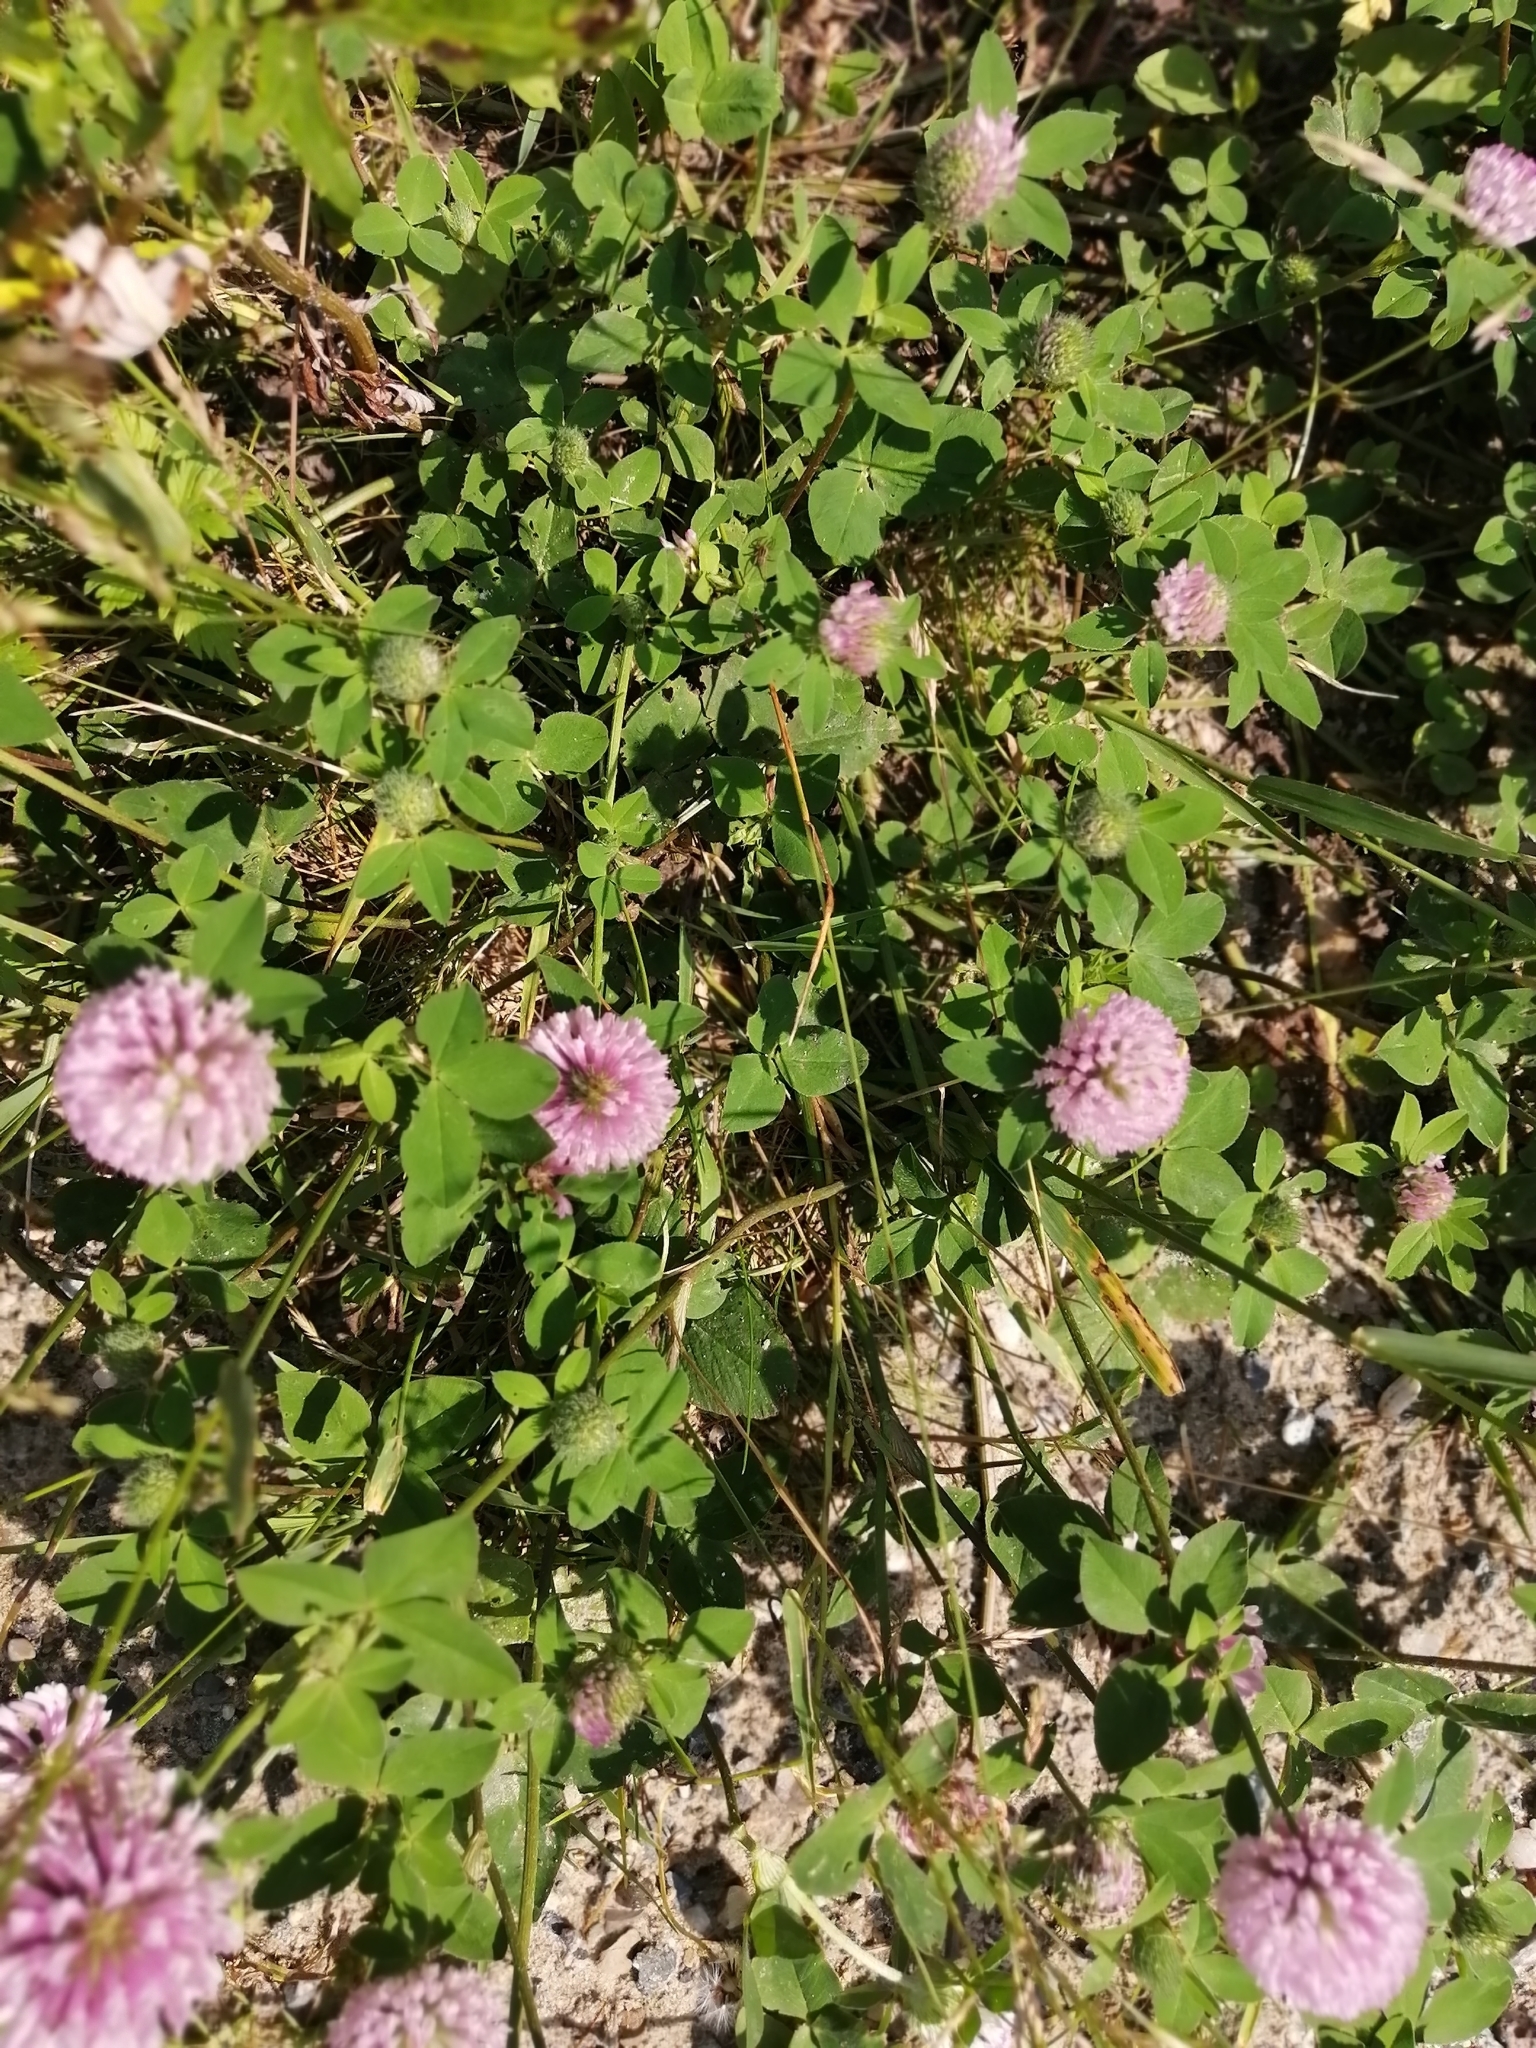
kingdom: Plantae
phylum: Tracheophyta
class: Magnoliopsida
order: Fabales
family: Fabaceae
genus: Trifolium
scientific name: Trifolium pratense
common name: Red clover
